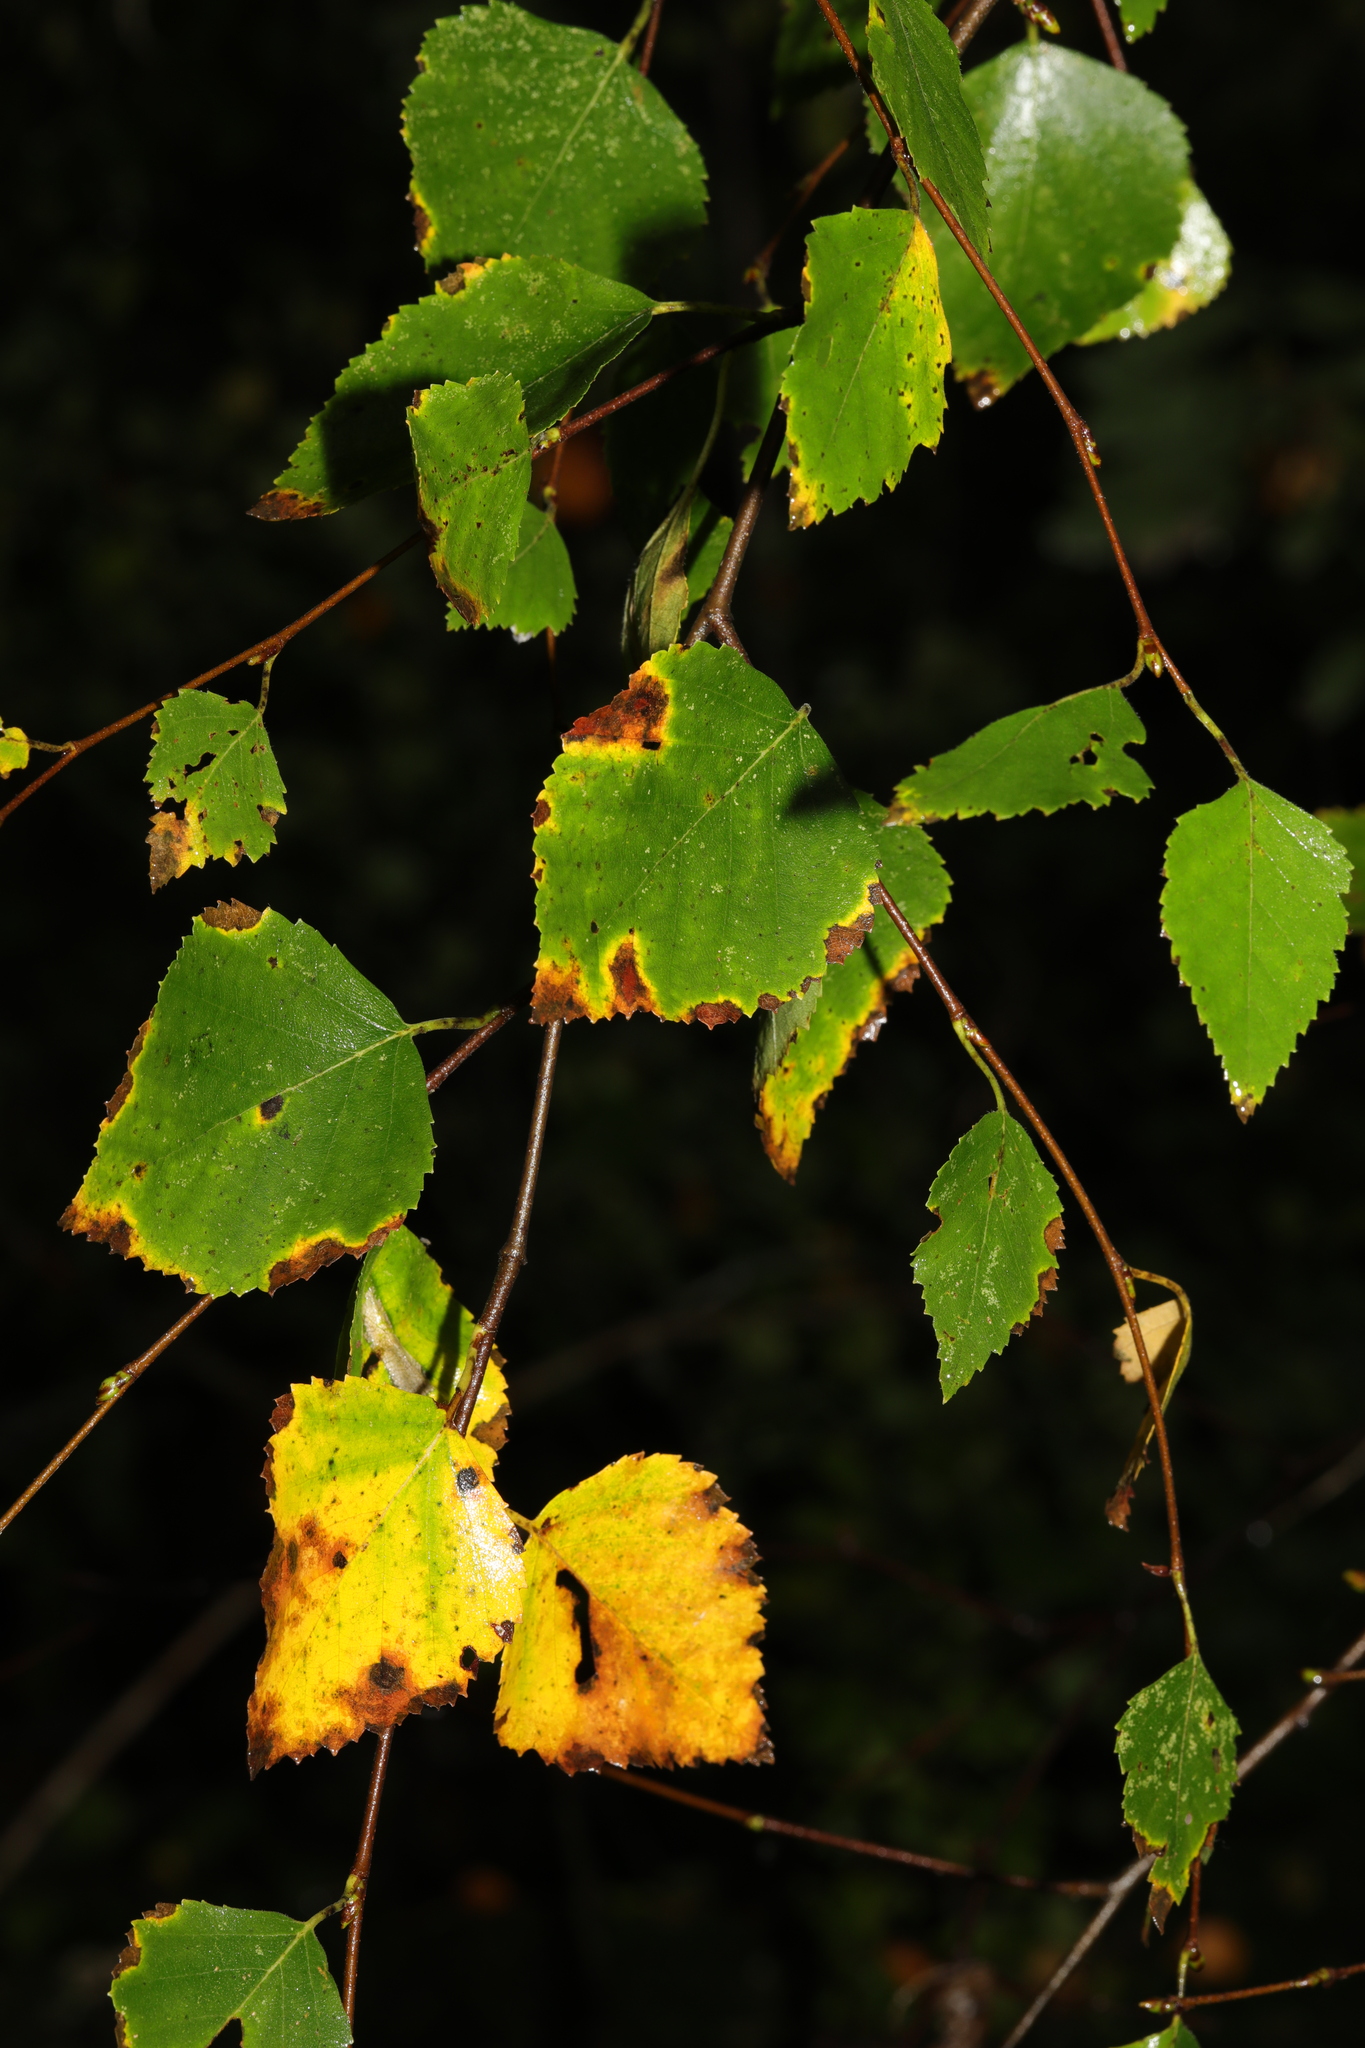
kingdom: Plantae
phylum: Tracheophyta
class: Magnoliopsida
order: Fagales
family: Betulaceae
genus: Betula
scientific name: Betula pendula
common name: Silver birch
